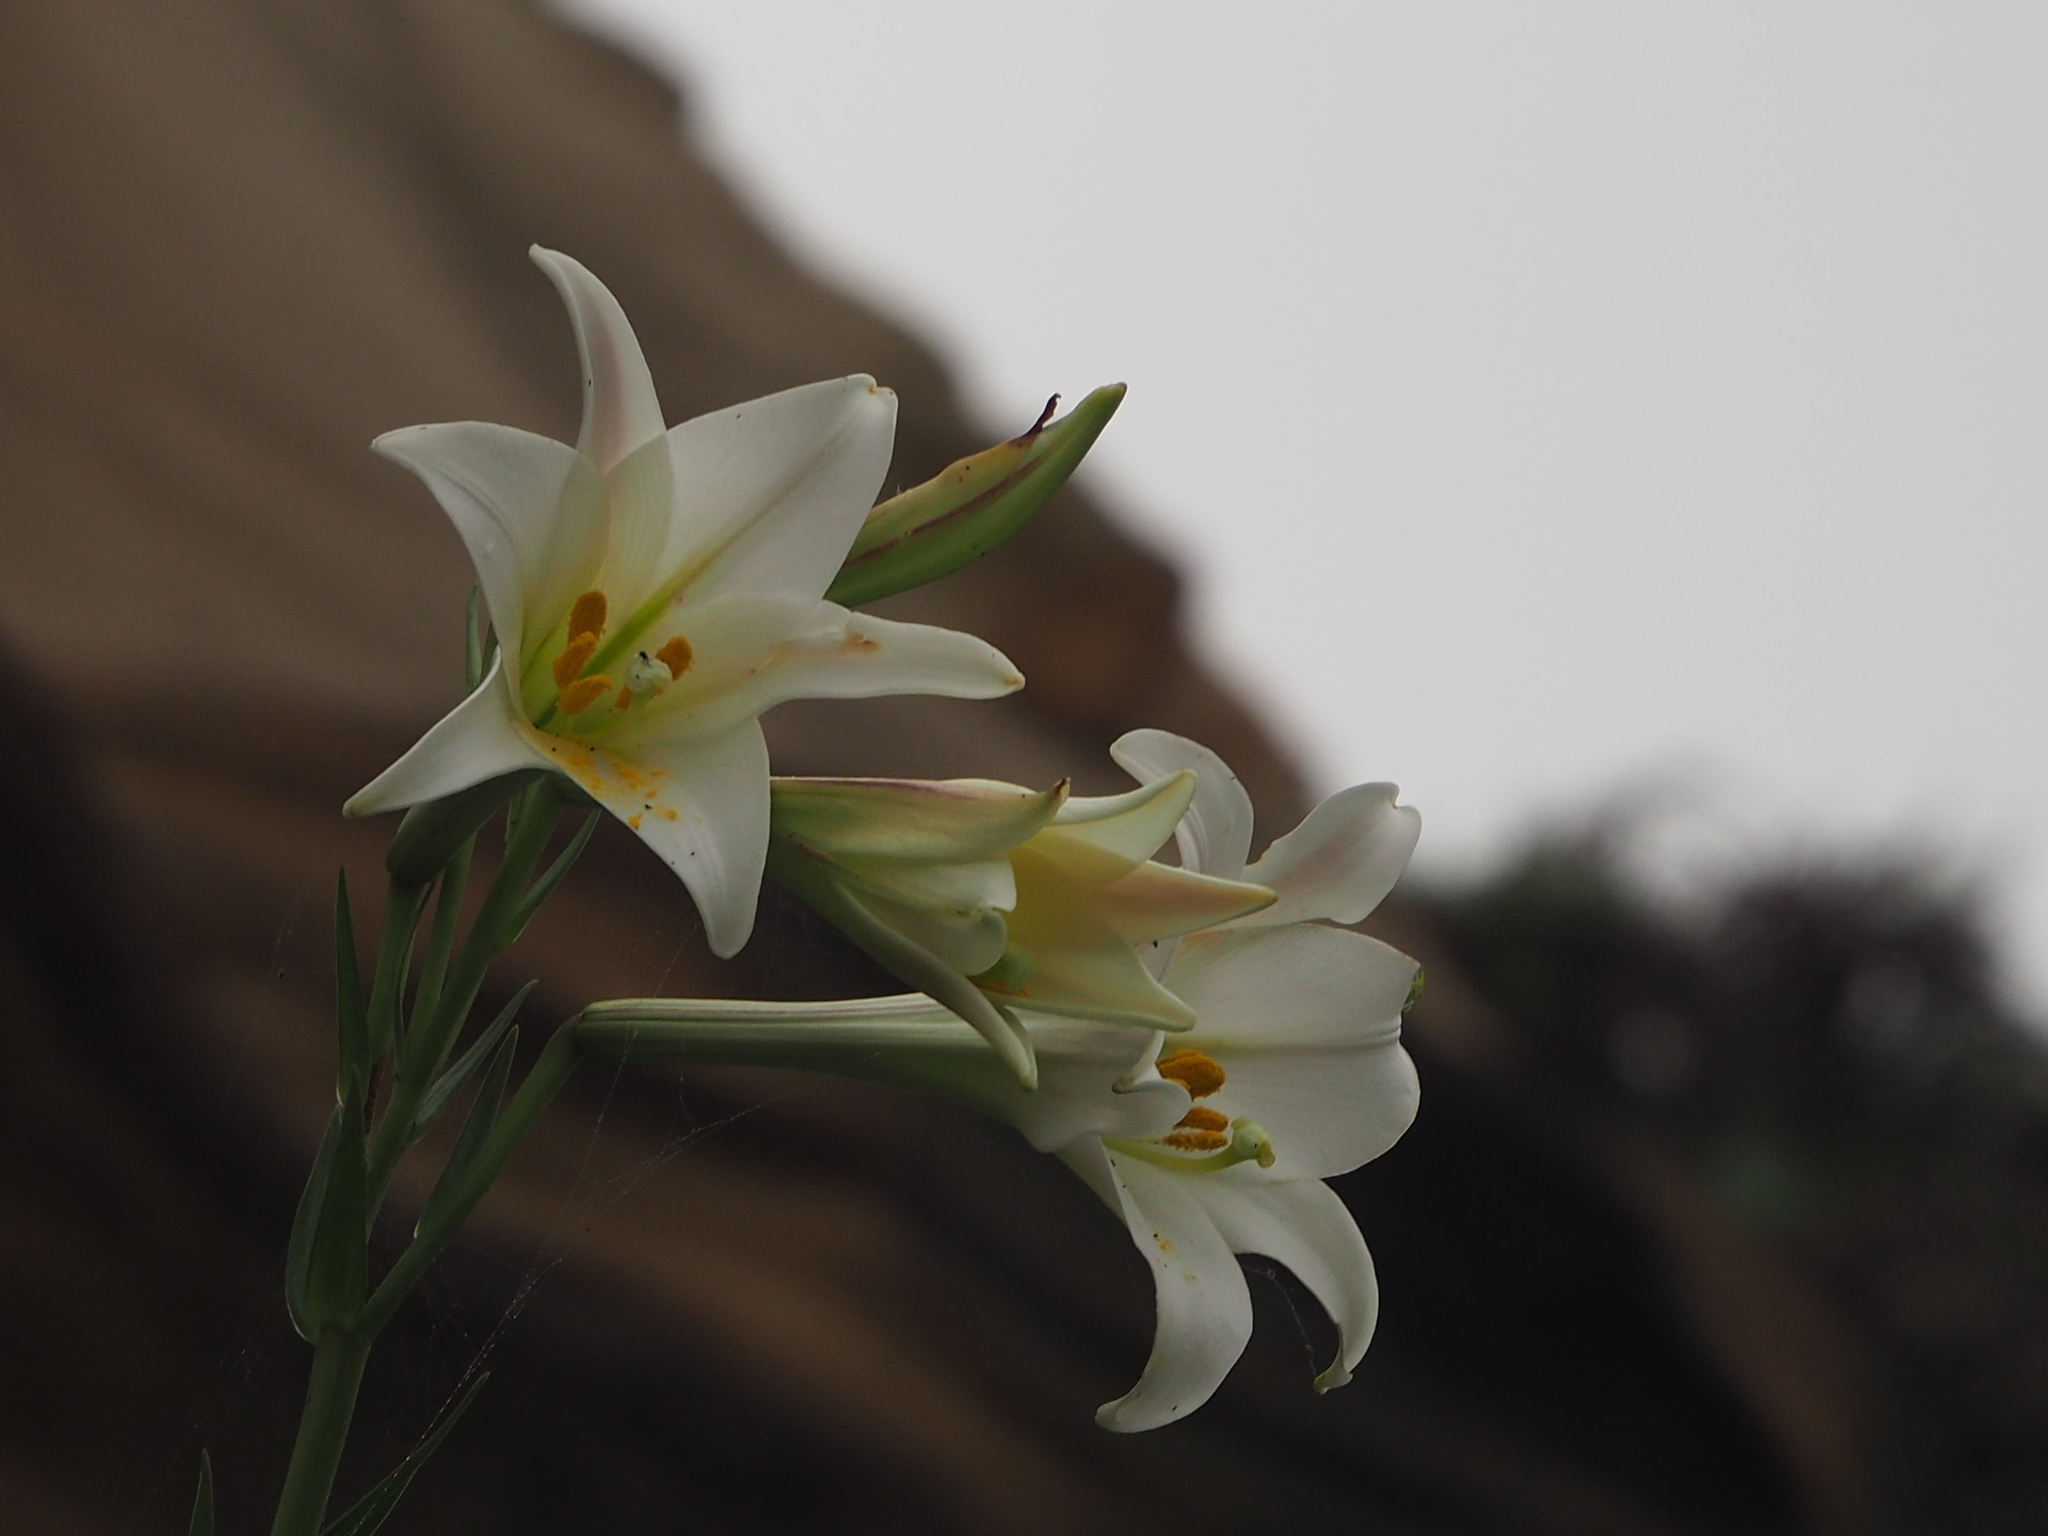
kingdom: Plantae
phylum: Tracheophyta
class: Liliopsida
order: Liliales
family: Liliaceae
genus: Lilium
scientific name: Lilium longiflorum
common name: Easter lily
